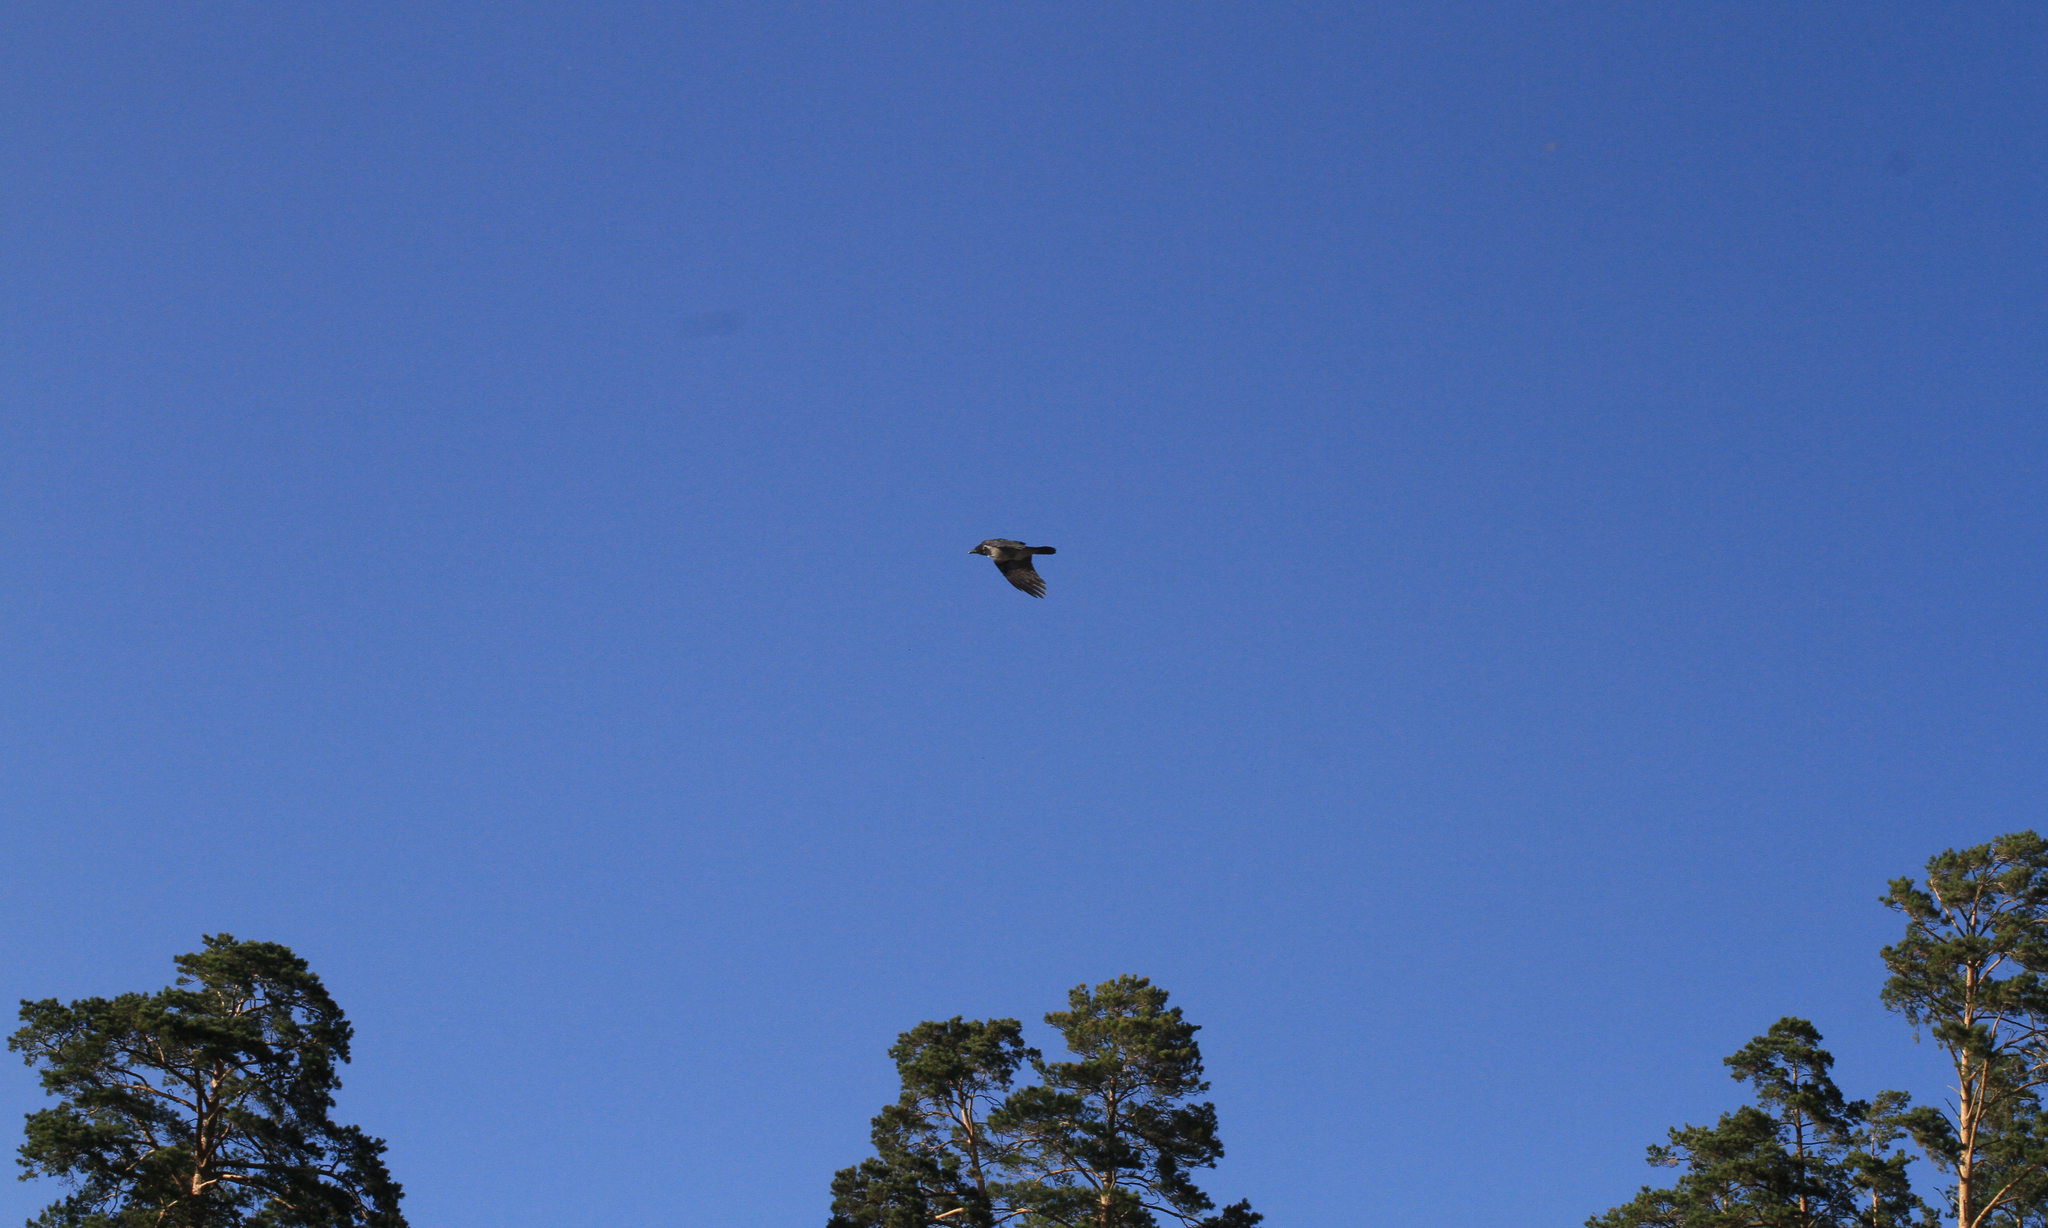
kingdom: Animalia
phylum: Chordata
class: Aves
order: Passeriformes
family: Corvidae
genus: Corvus
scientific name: Corvus cornix
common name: Hooded crow
